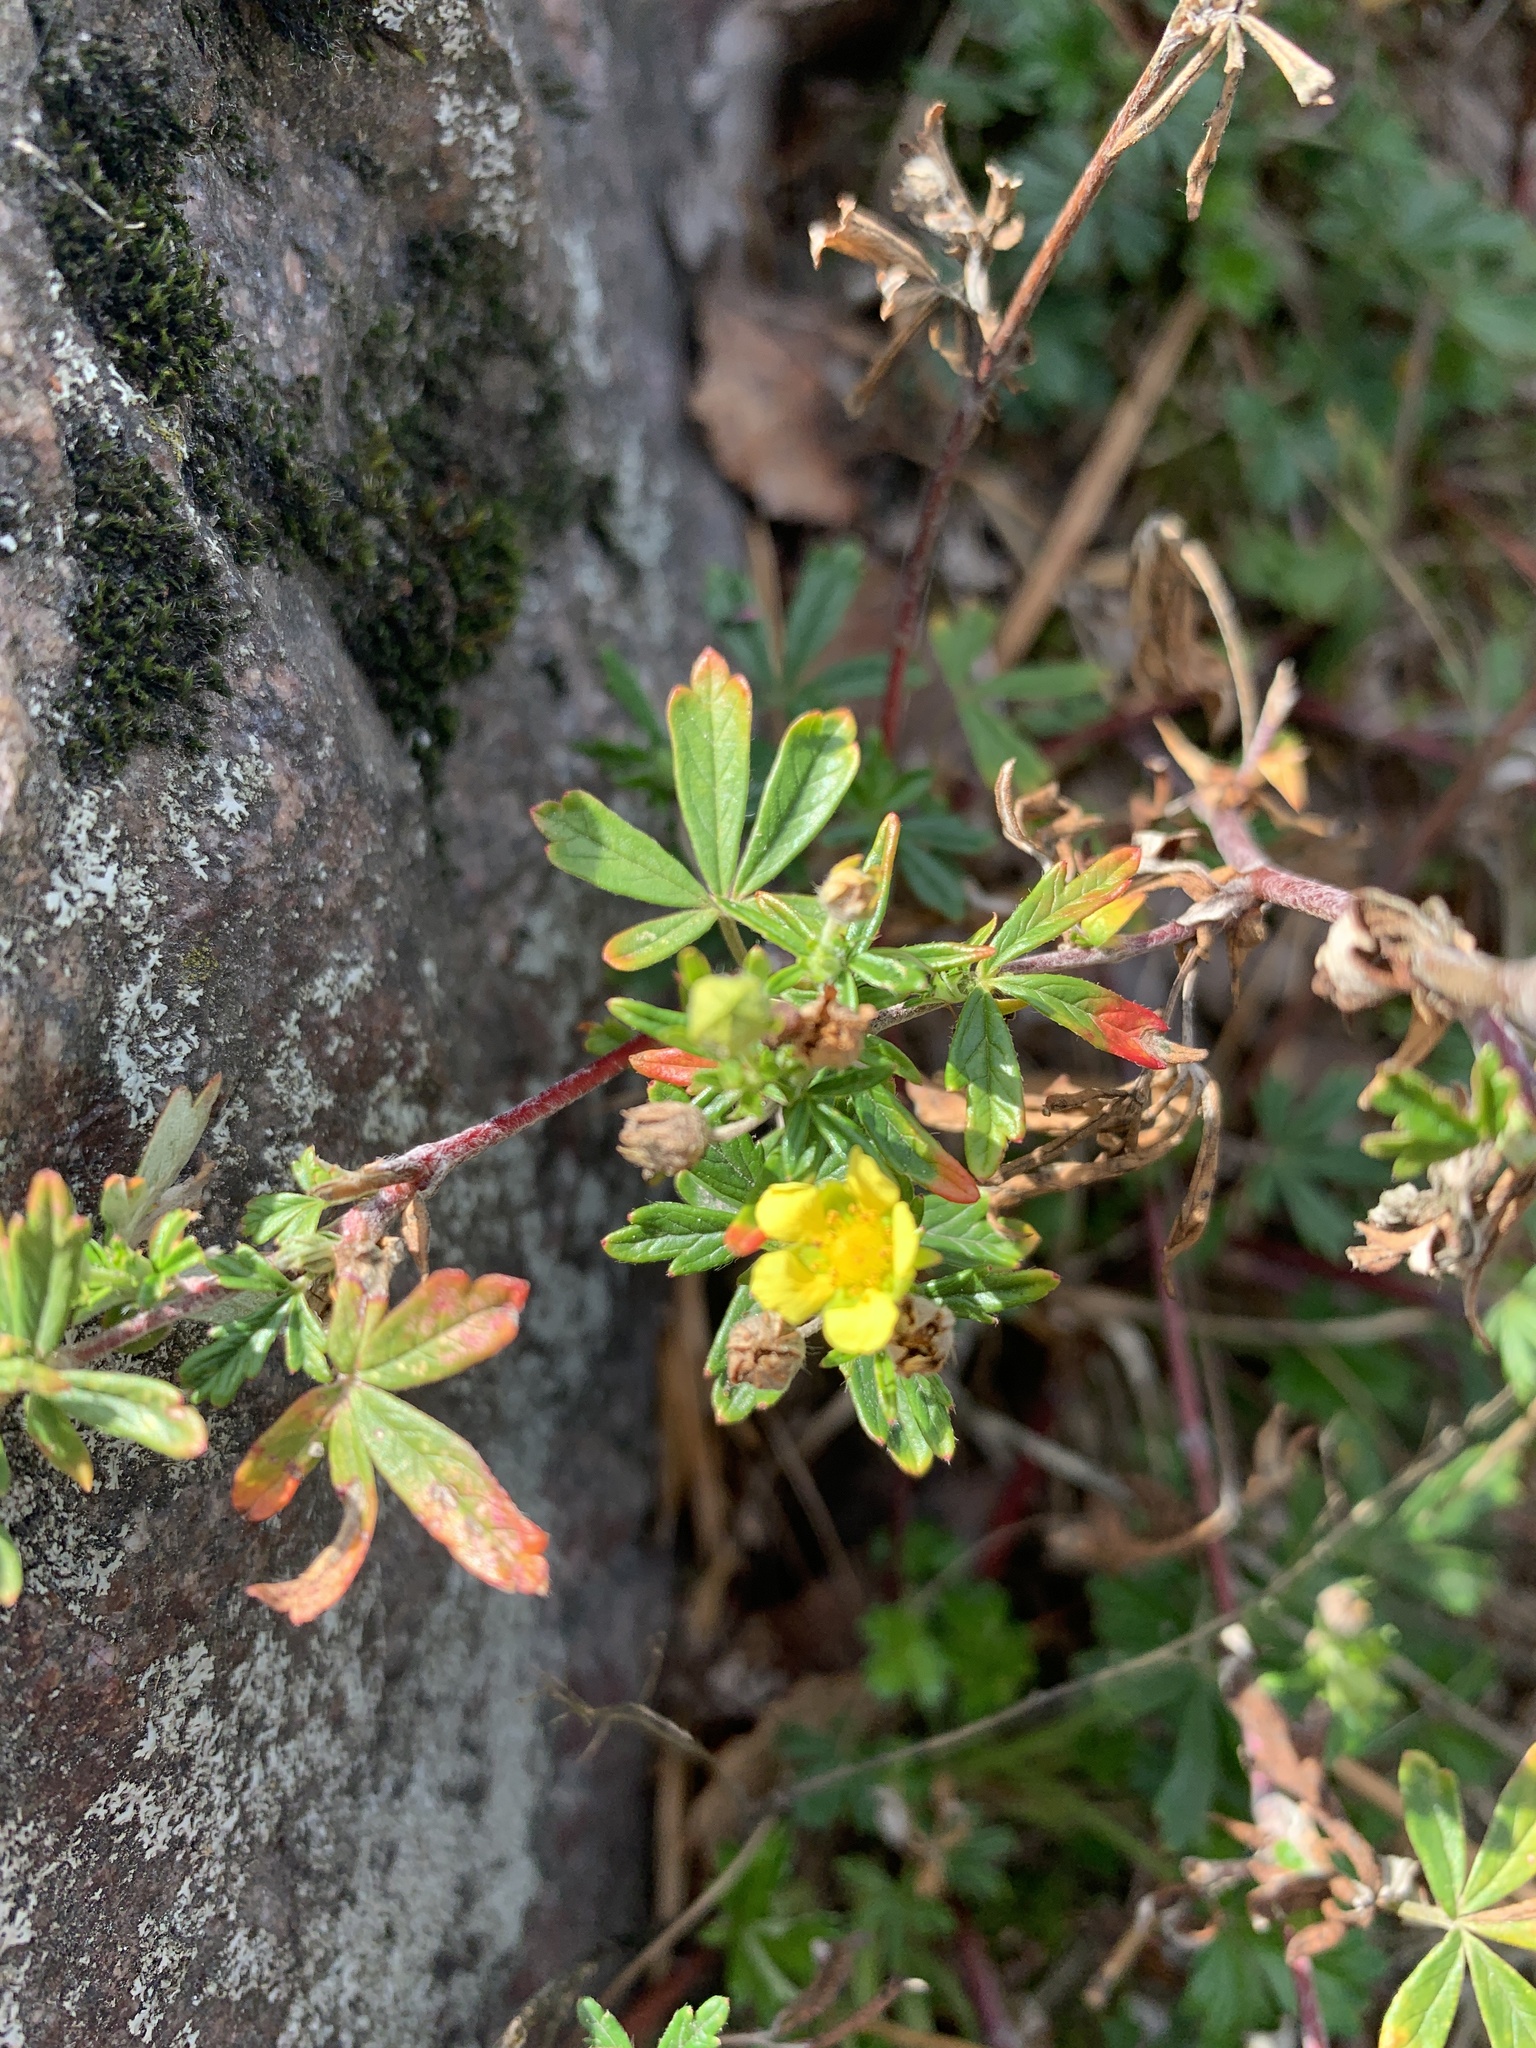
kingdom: Plantae
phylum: Tracheophyta
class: Magnoliopsida
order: Rosales
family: Rosaceae
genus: Potentilla
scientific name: Potentilla argentea
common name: Hoary cinquefoil
